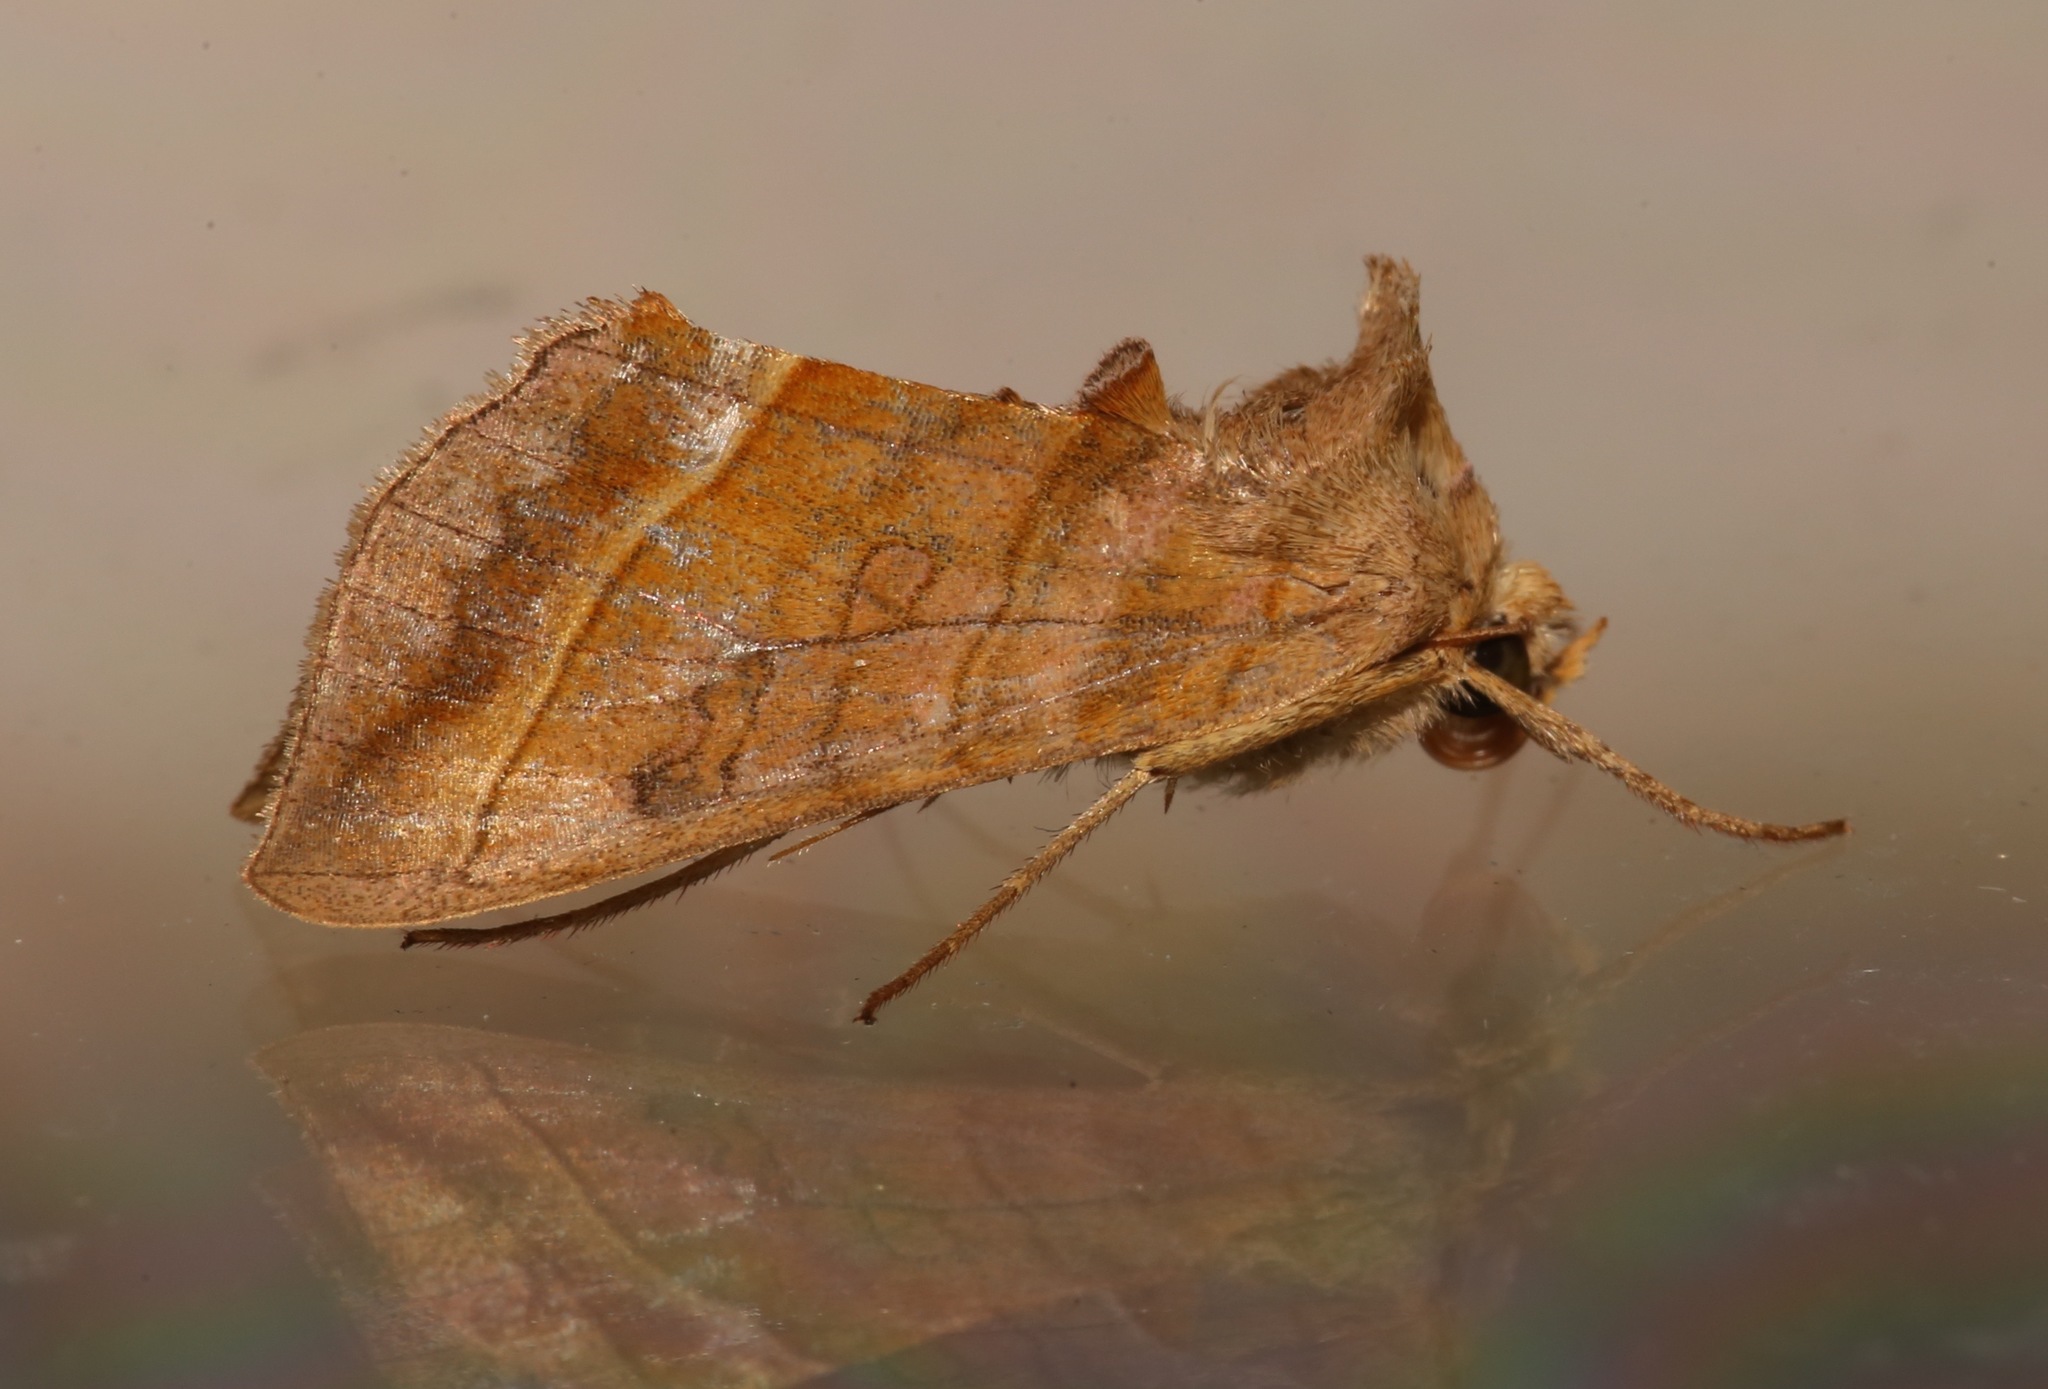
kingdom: Animalia
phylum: Arthropoda
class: Insecta
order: Lepidoptera
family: Noctuidae
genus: Diachrysia
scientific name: Diachrysia aereoides
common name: Dark-spotted looper moth
